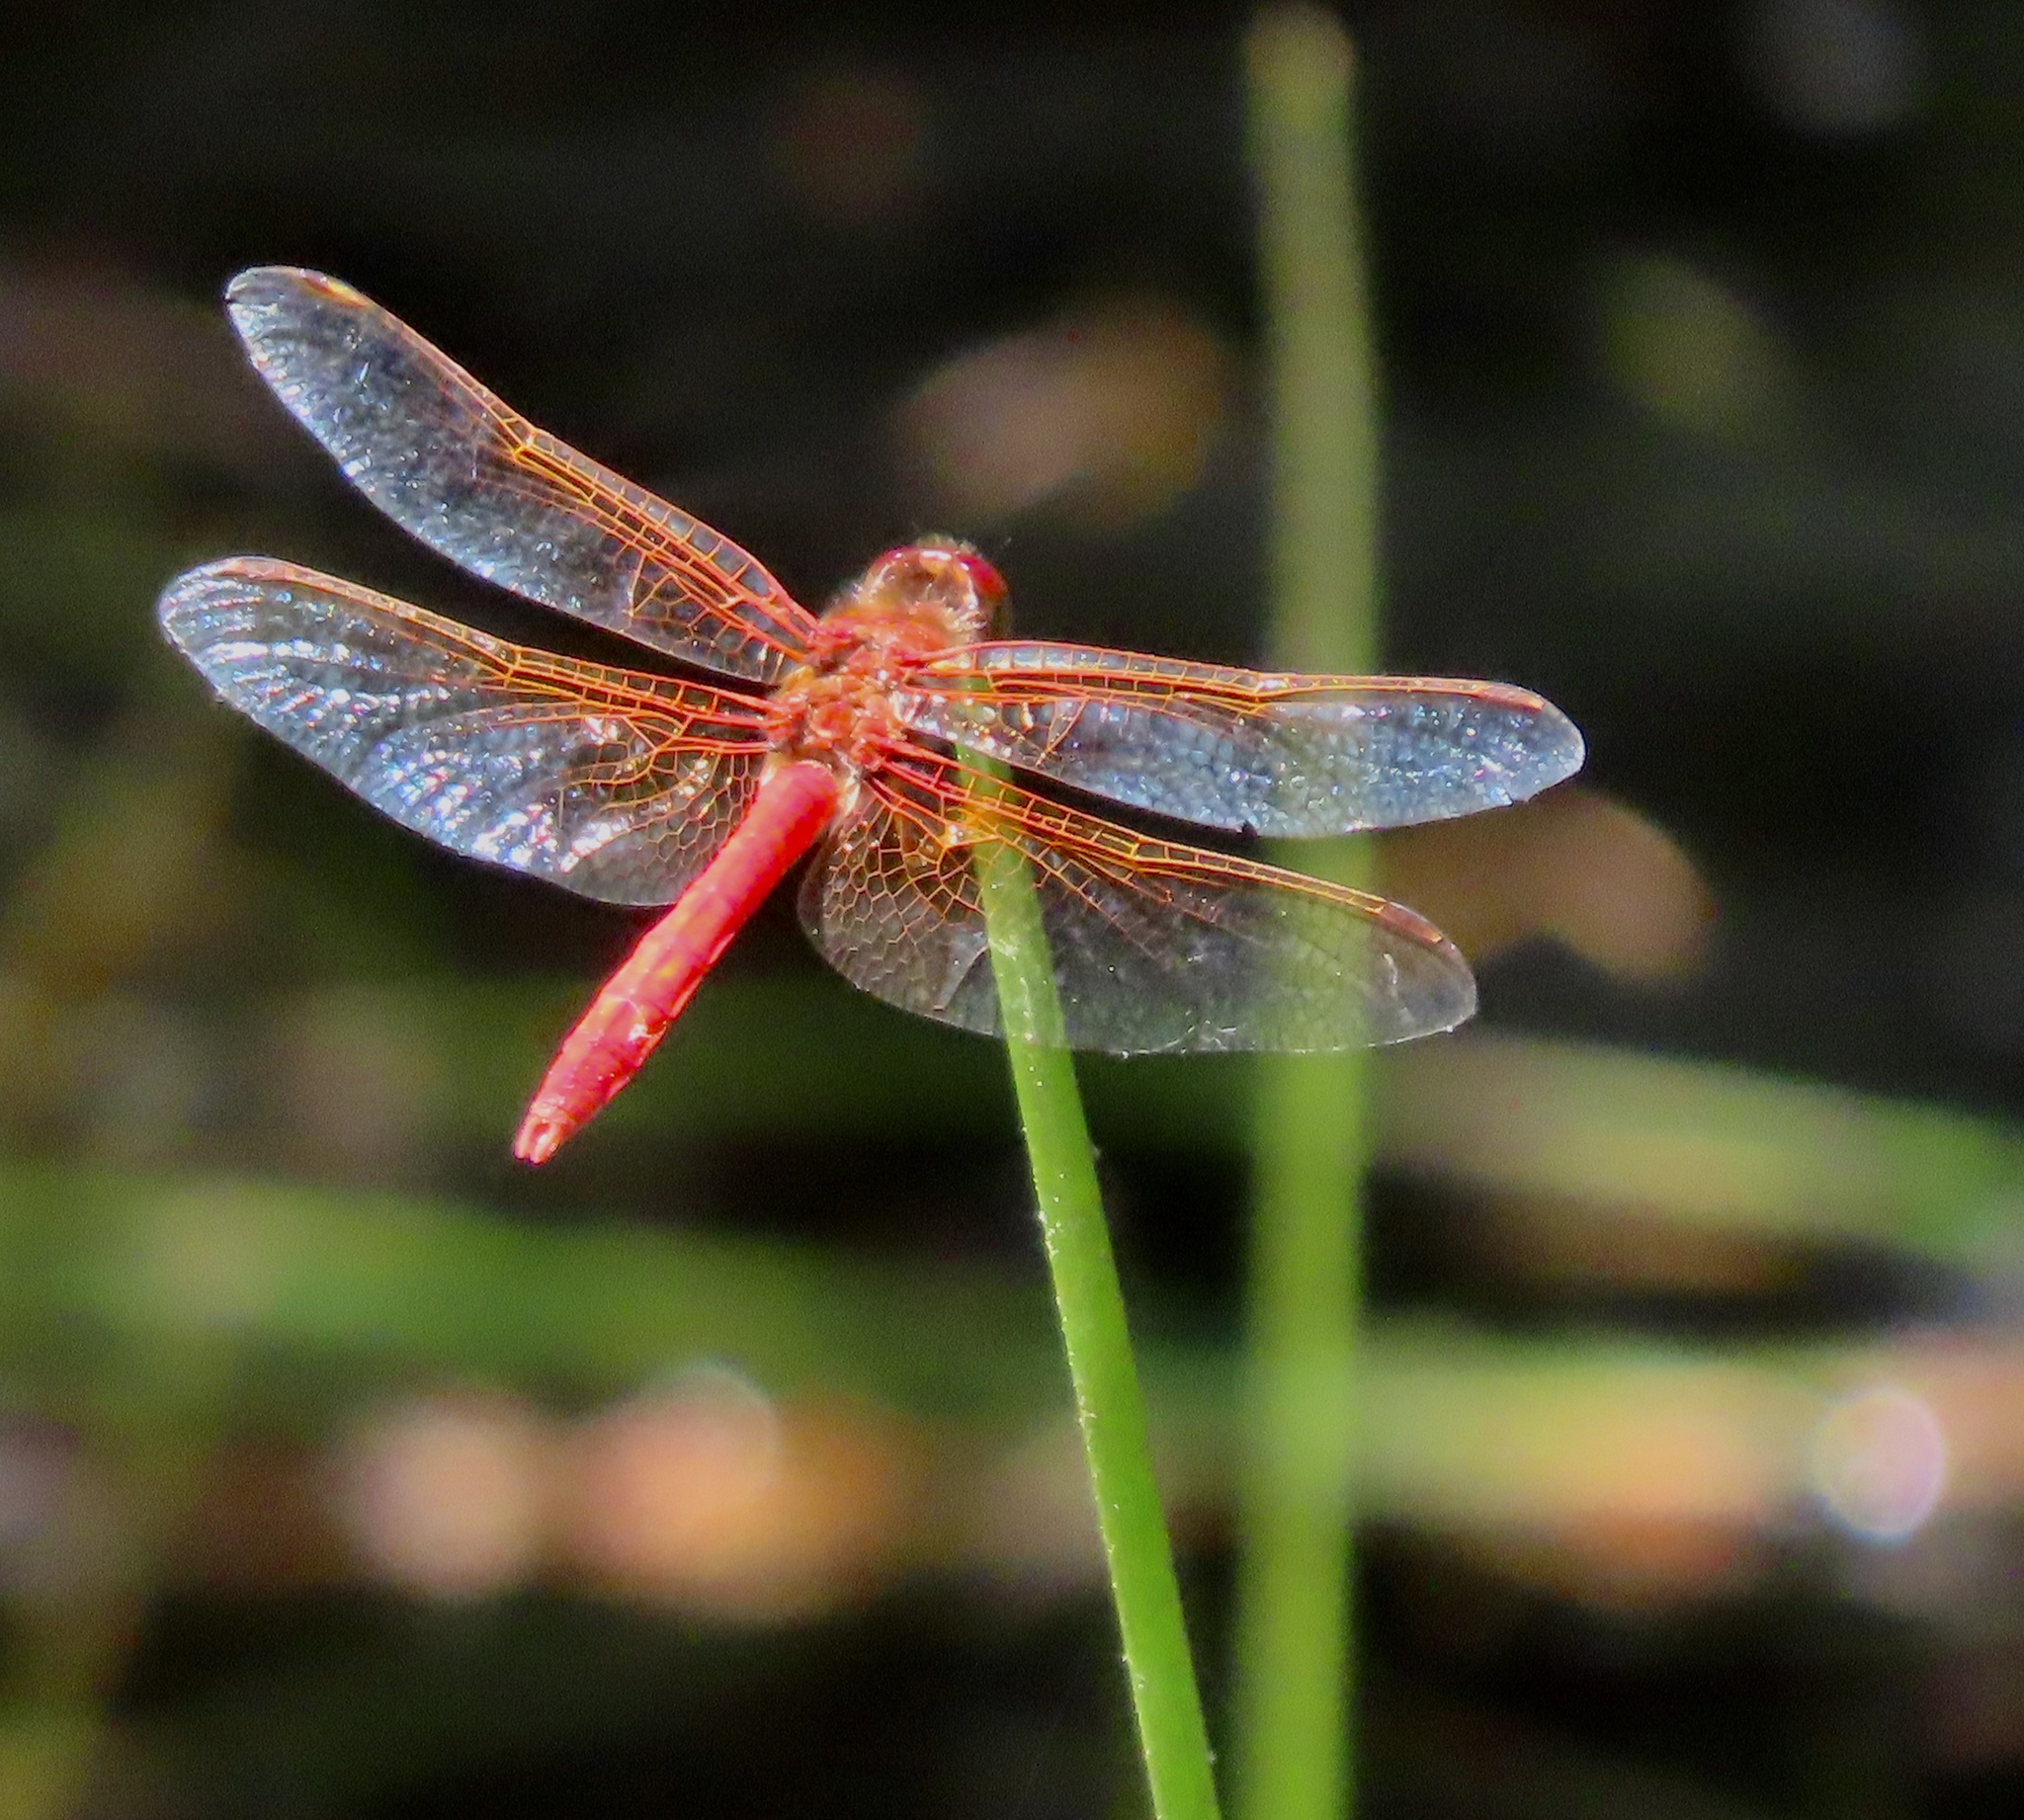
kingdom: Animalia
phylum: Arthropoda
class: Insecta
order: Odonata
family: Libellulidae
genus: Sympetrum
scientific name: Sympetrum illotum
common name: Cardinal meadowhawk
